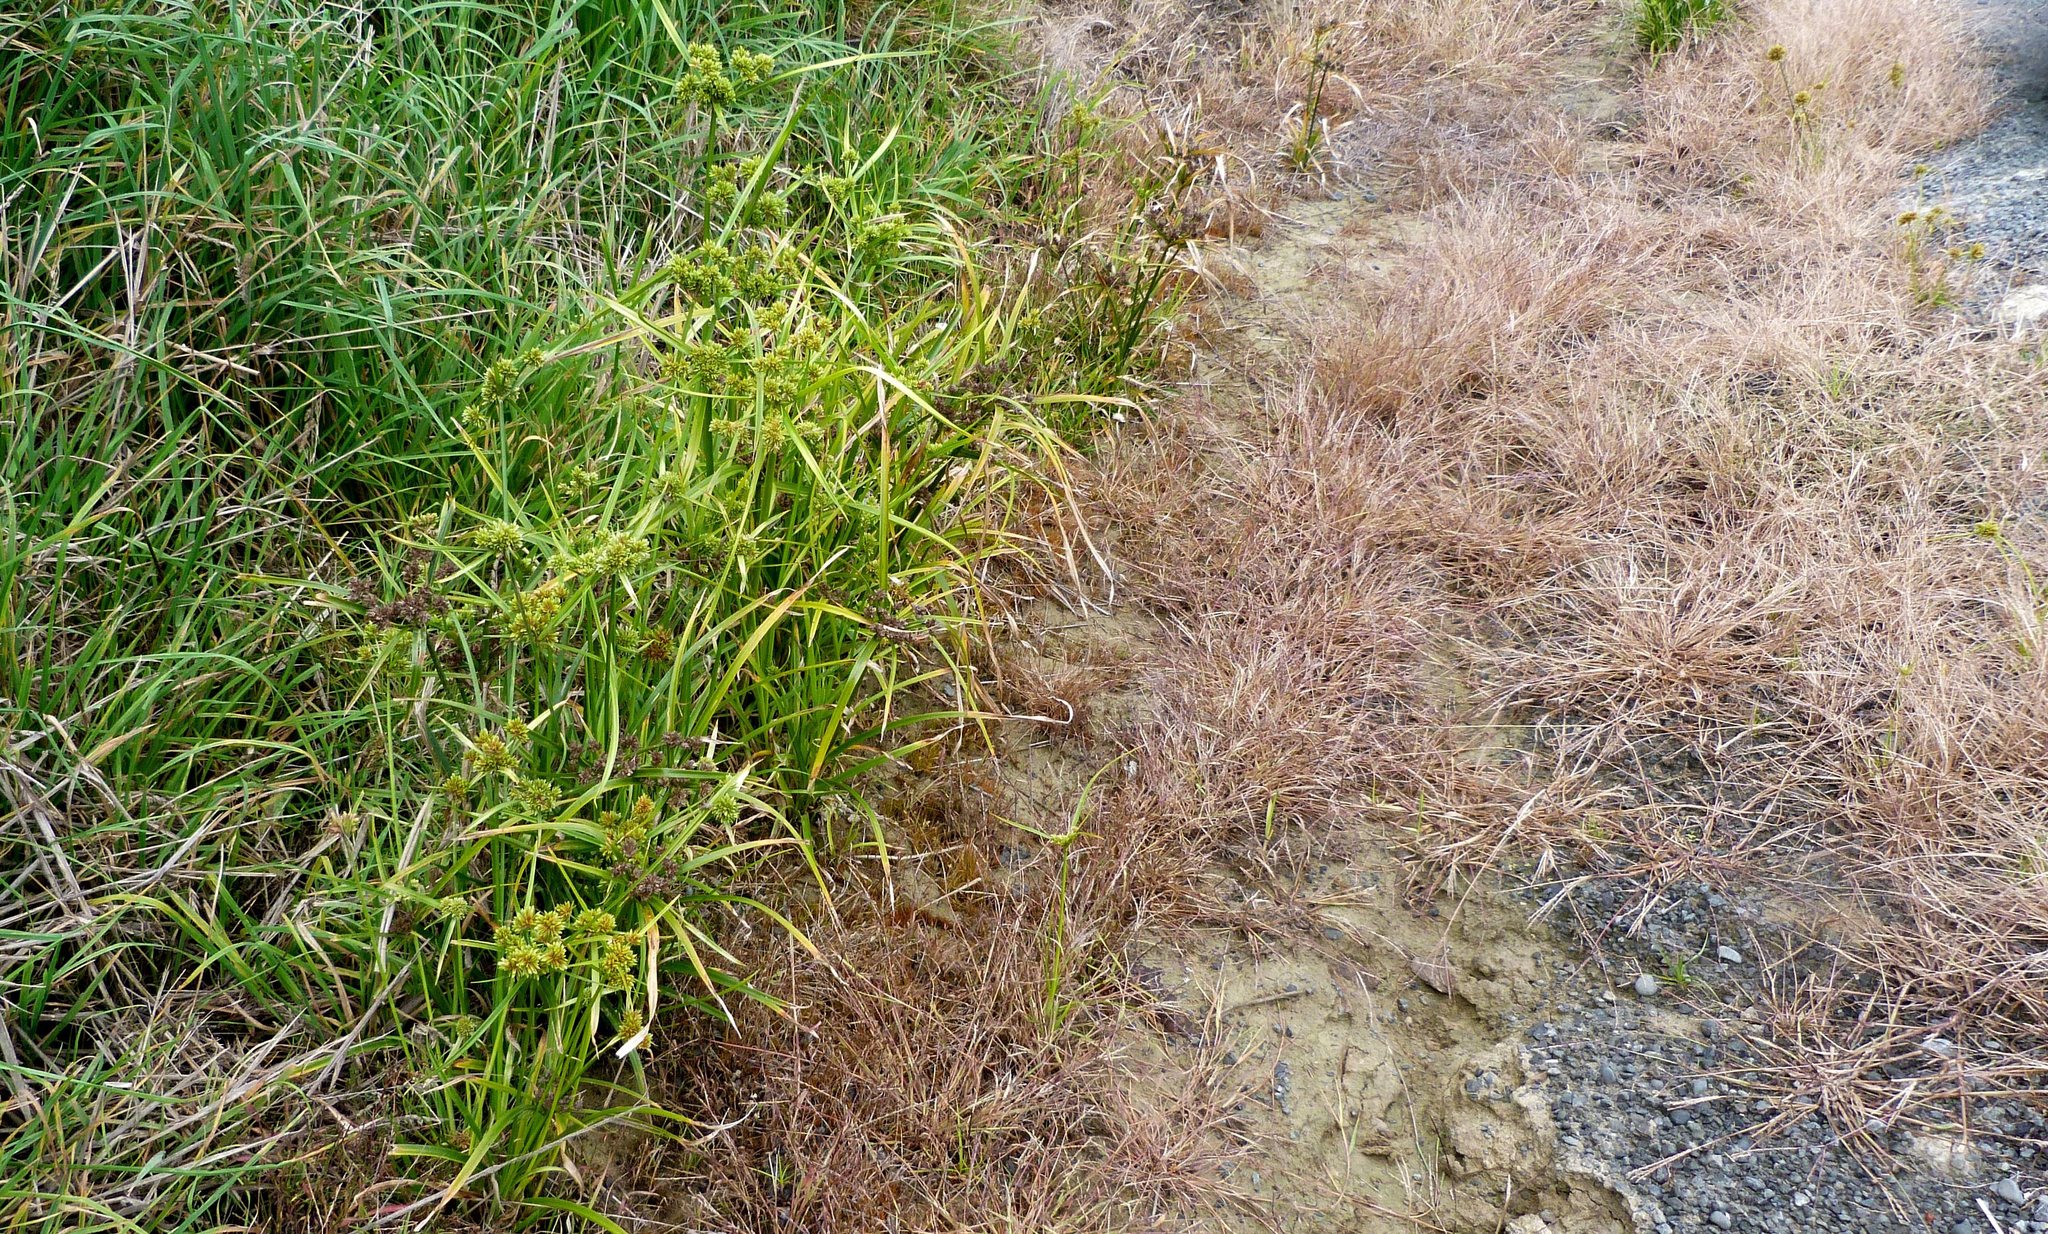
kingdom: Plantae
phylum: Tracheophyta
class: Liliopsida
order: Poales
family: Cyperaceae
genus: Cyperus
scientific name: Cyperus eragrostis
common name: Tall flatsedge
